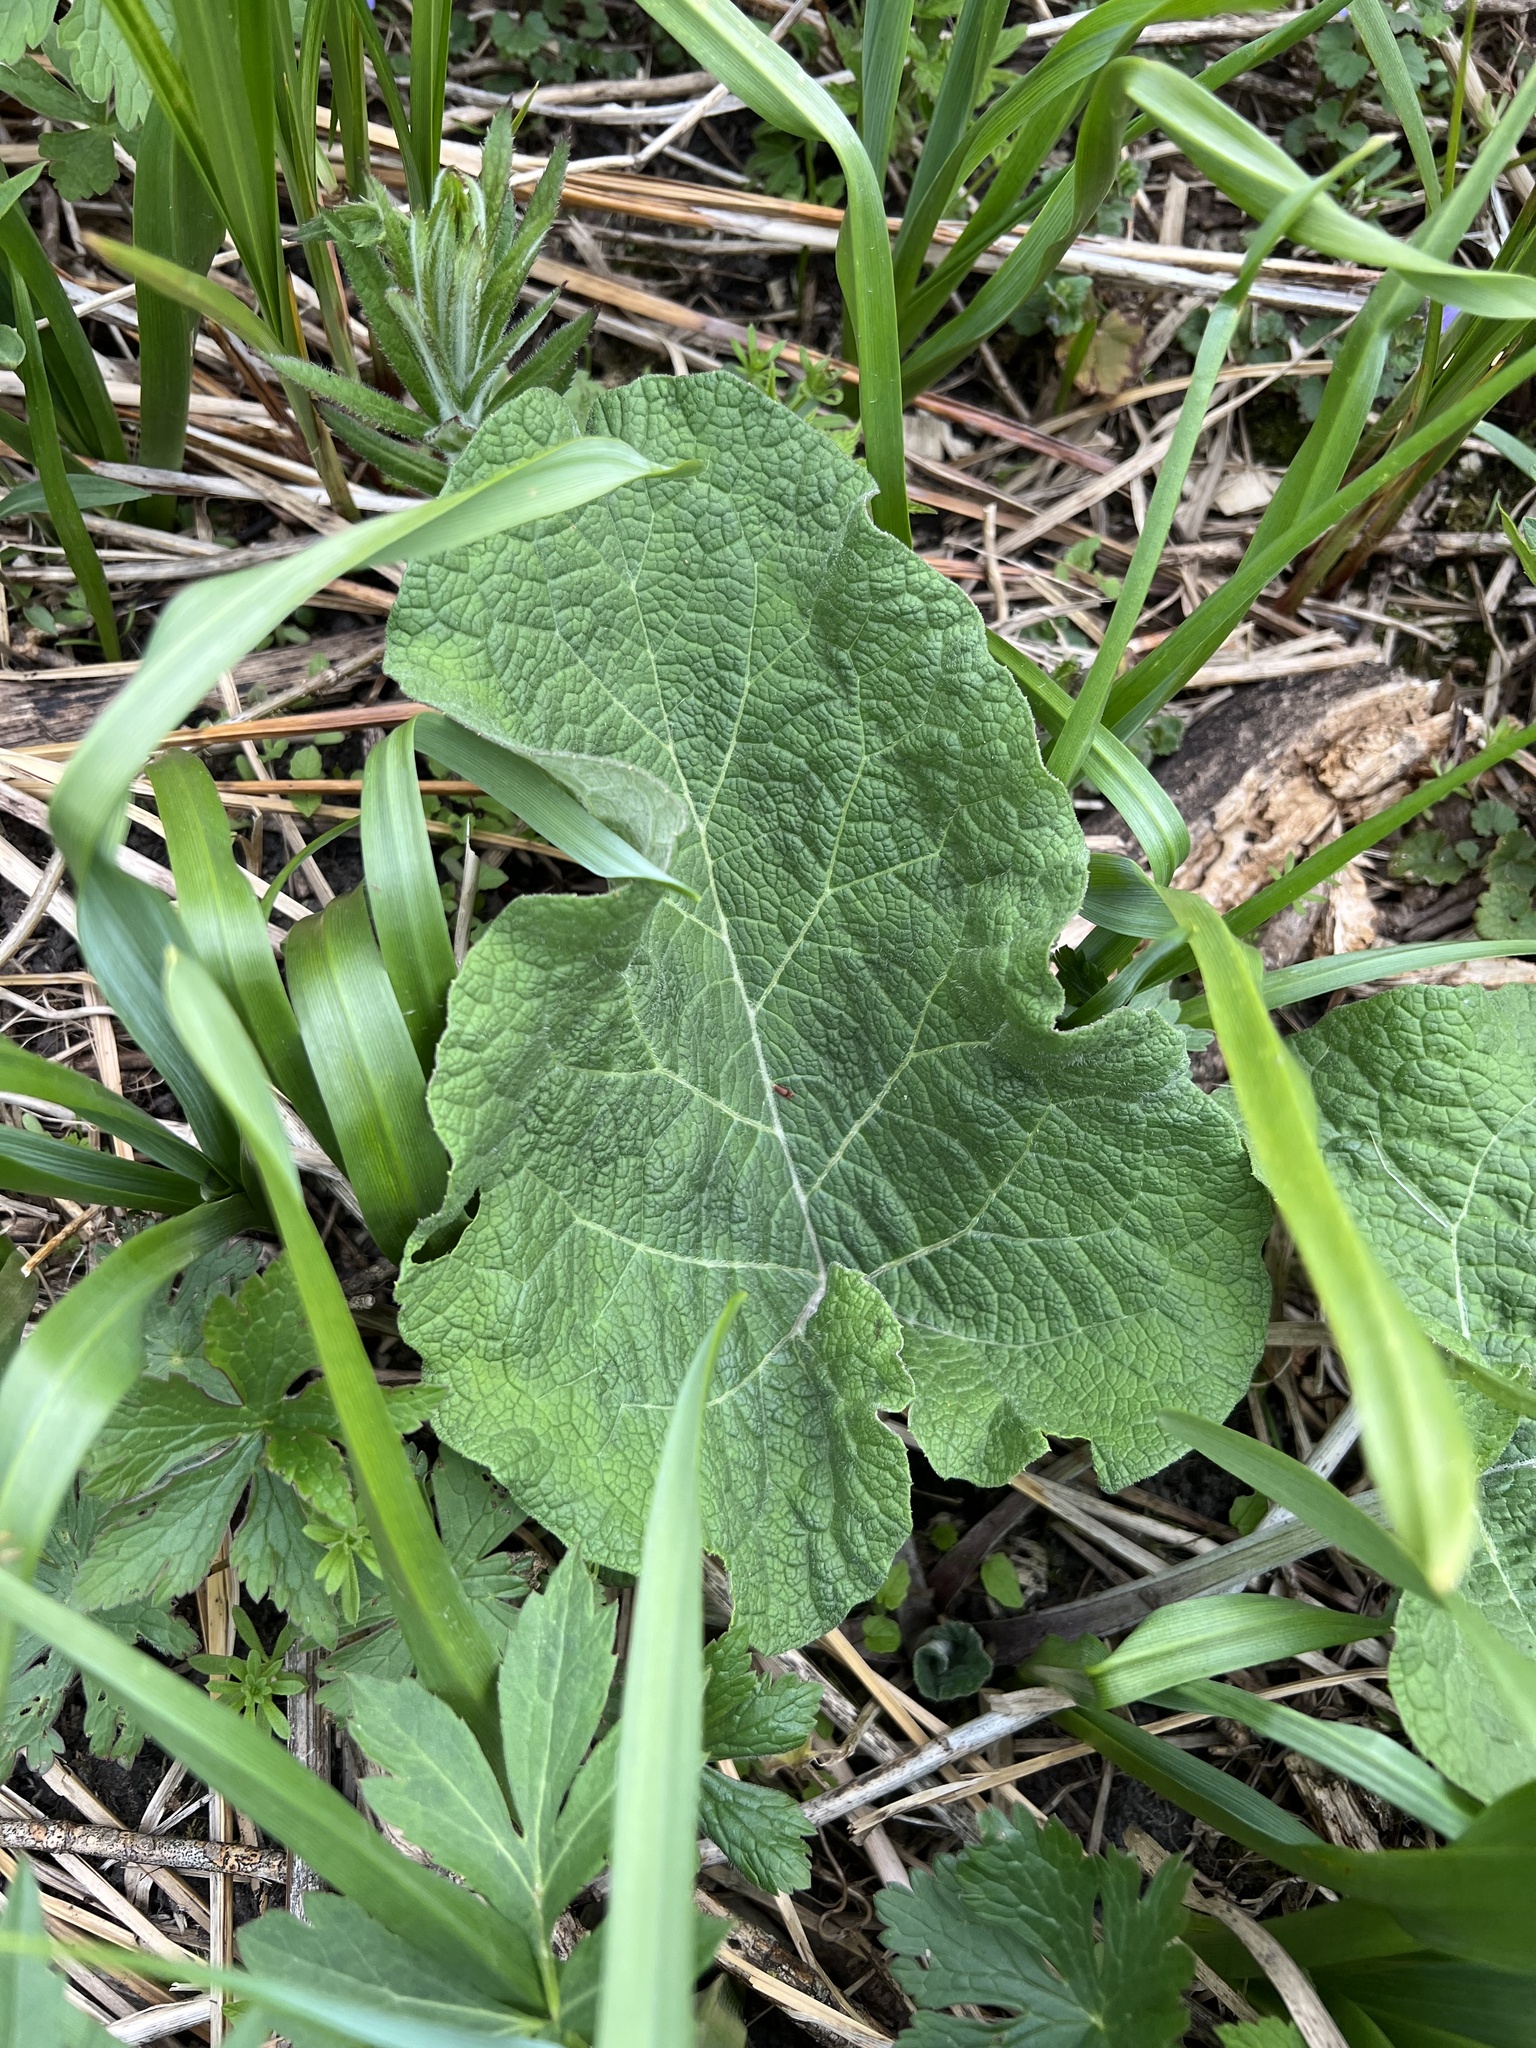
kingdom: Plantae
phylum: Tracheophyta
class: Magnoliopsida
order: Asterales
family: Asteraceae
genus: Arctium
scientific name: Arctium
